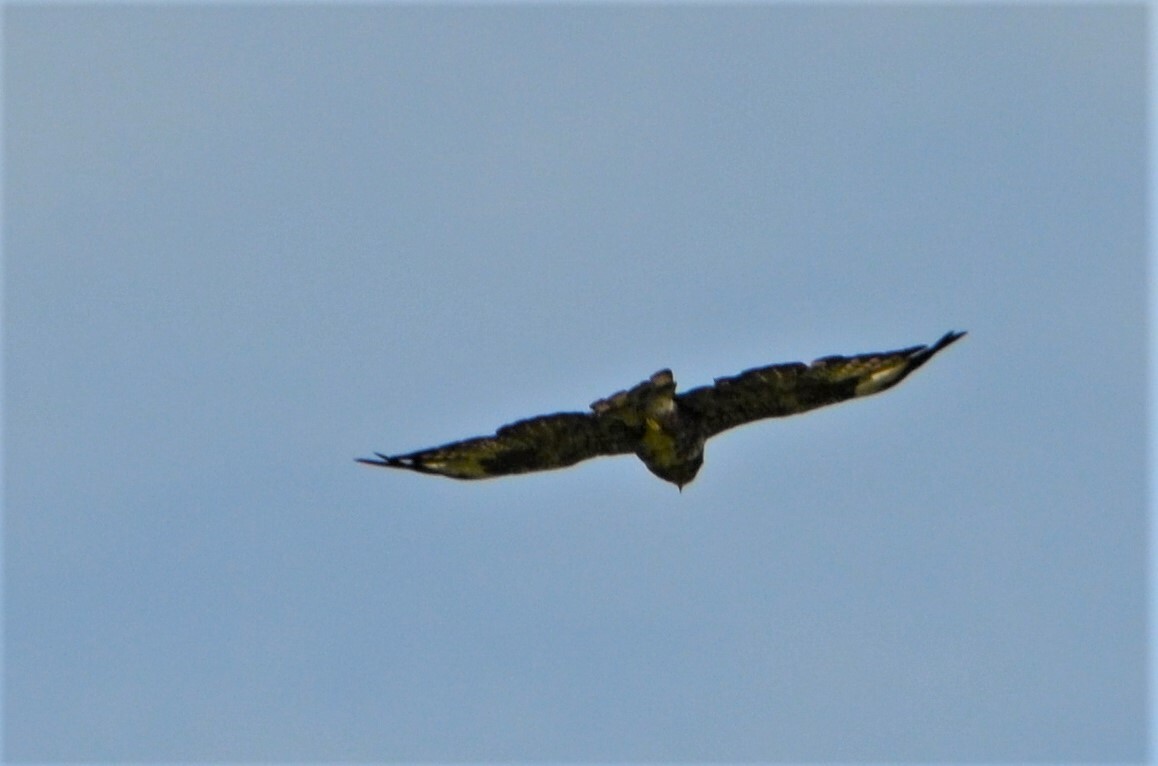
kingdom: Animalia
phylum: Chordata
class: Aves
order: Accipitriformes
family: Accipitridae
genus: Buteo
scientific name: Buteo buteo
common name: Common buzzard
